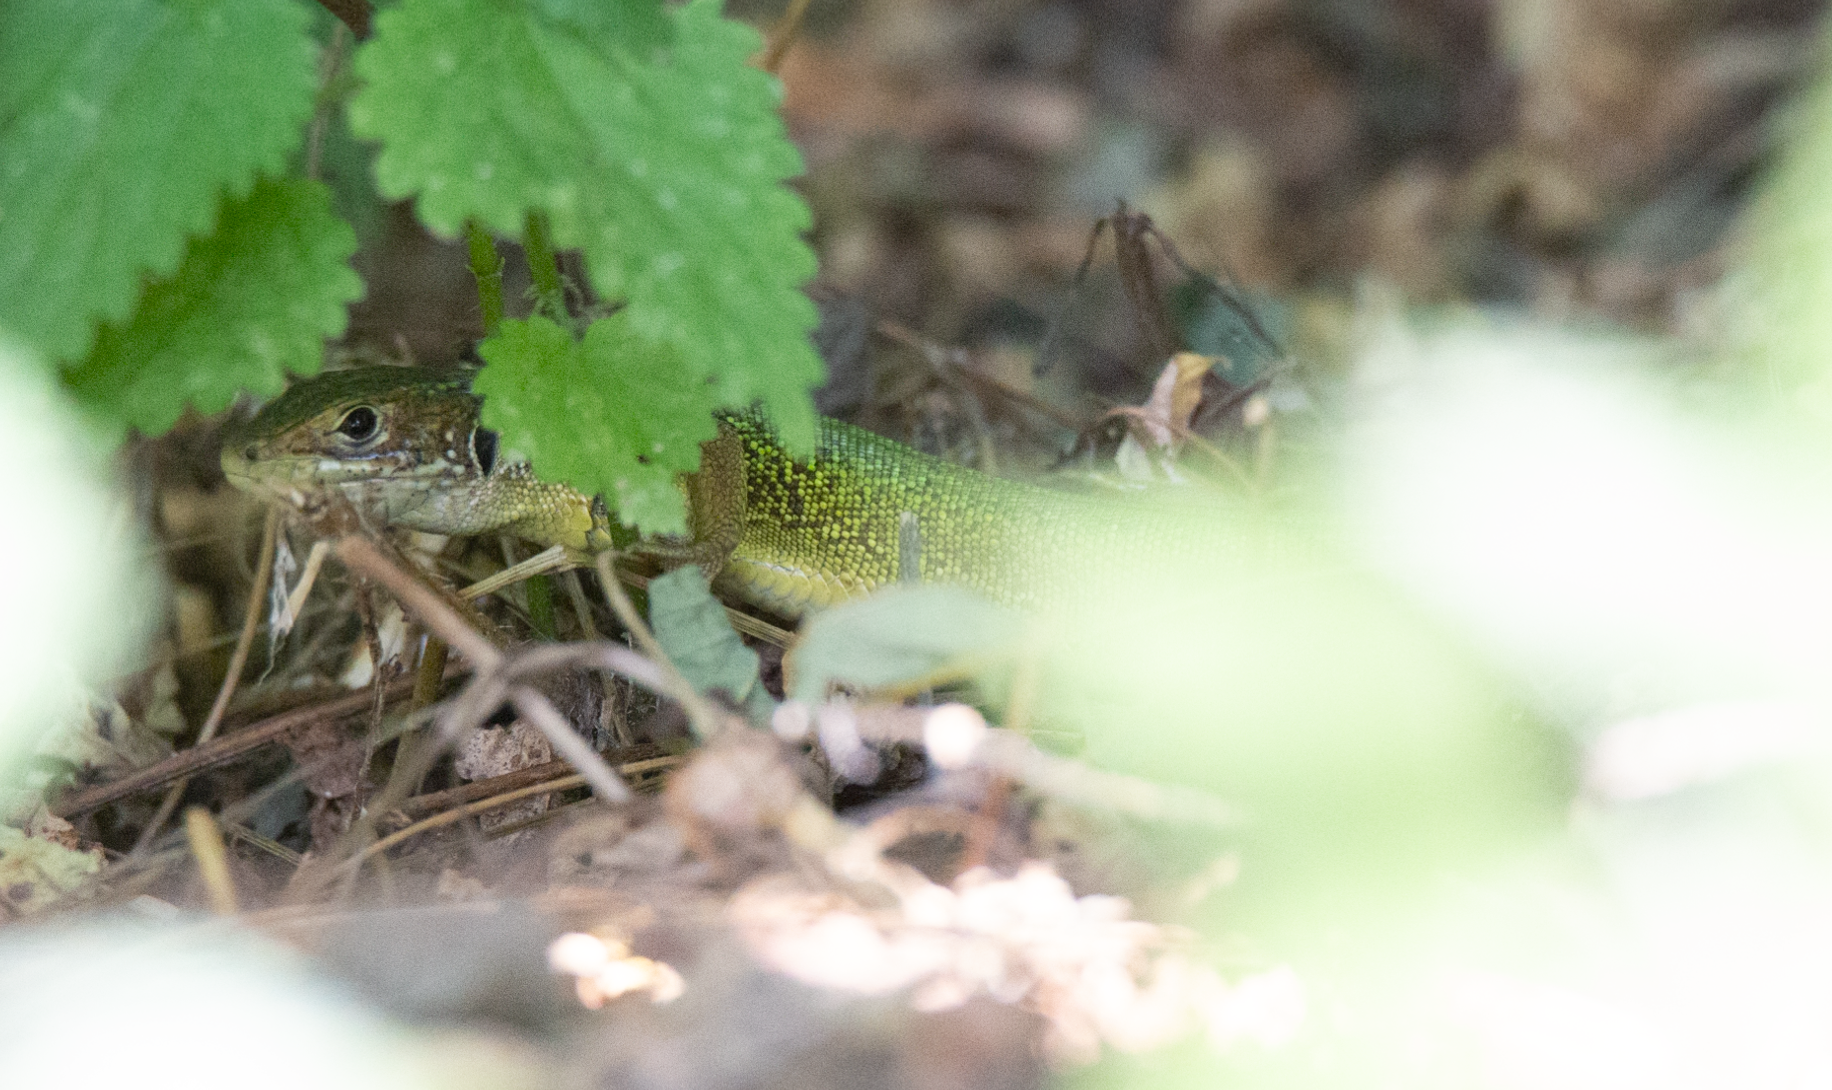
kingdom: Animalia
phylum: Chordata
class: Squamata
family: Lacertidae
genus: Lacerta
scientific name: Lacerta bilineata
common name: Western green lizard
